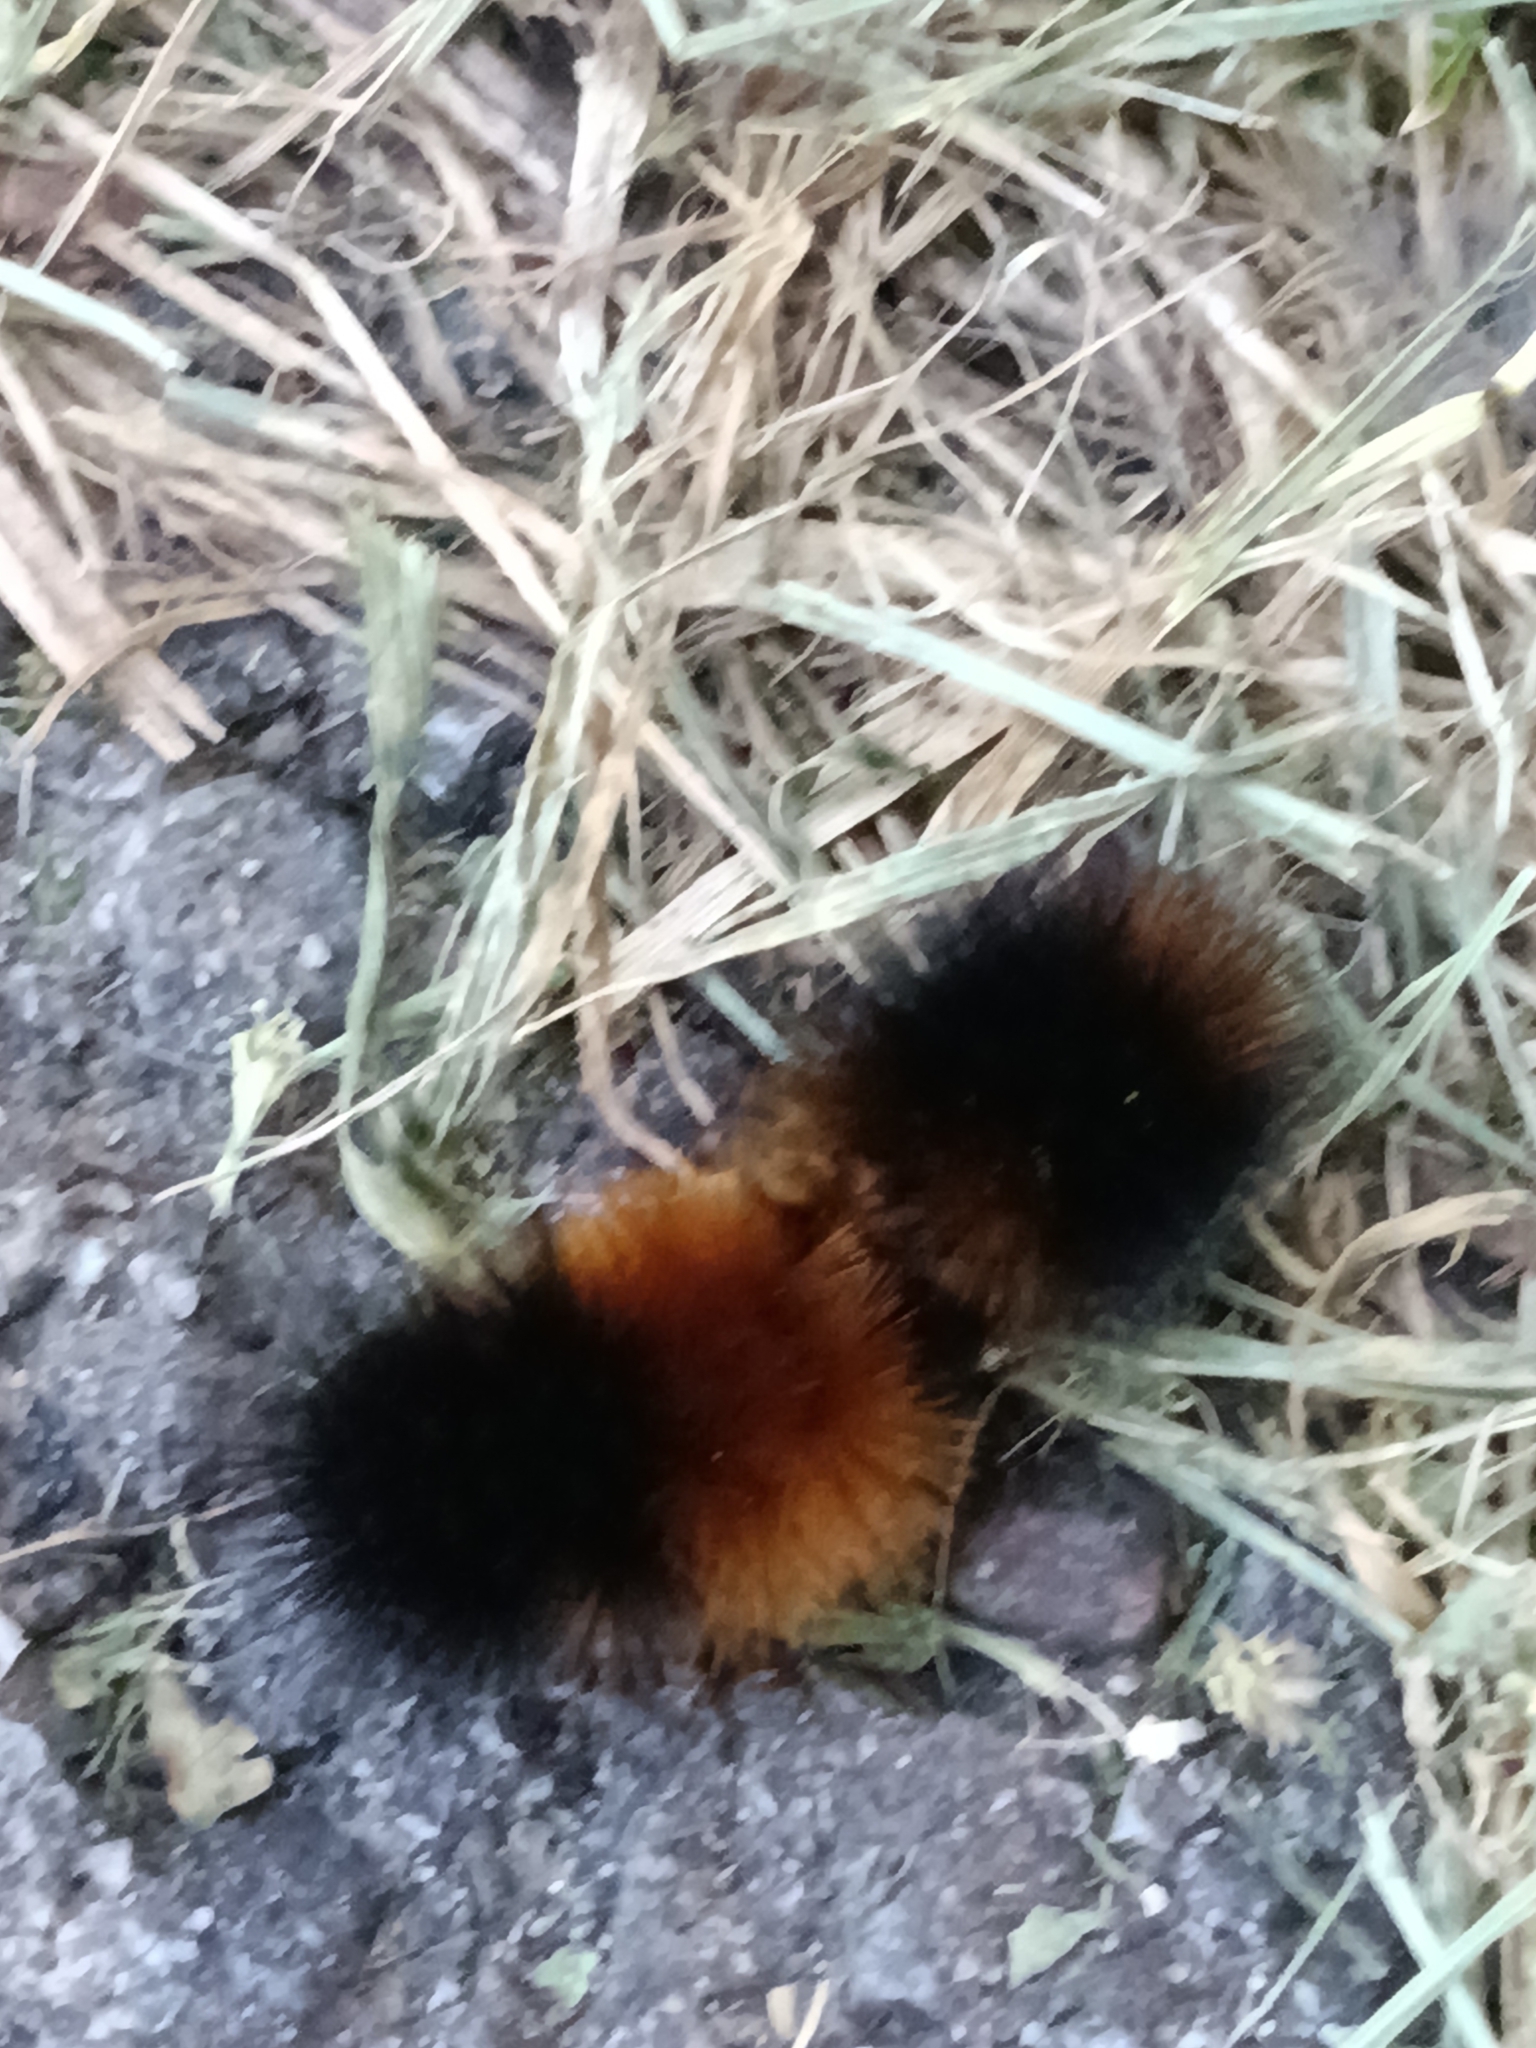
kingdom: Animalia
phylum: Arthropoda
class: Insecta
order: Lepidoptera
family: Erebidae
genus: Pyrrharctia
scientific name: Pyrrharctia isabella
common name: Isabella tiger moth
